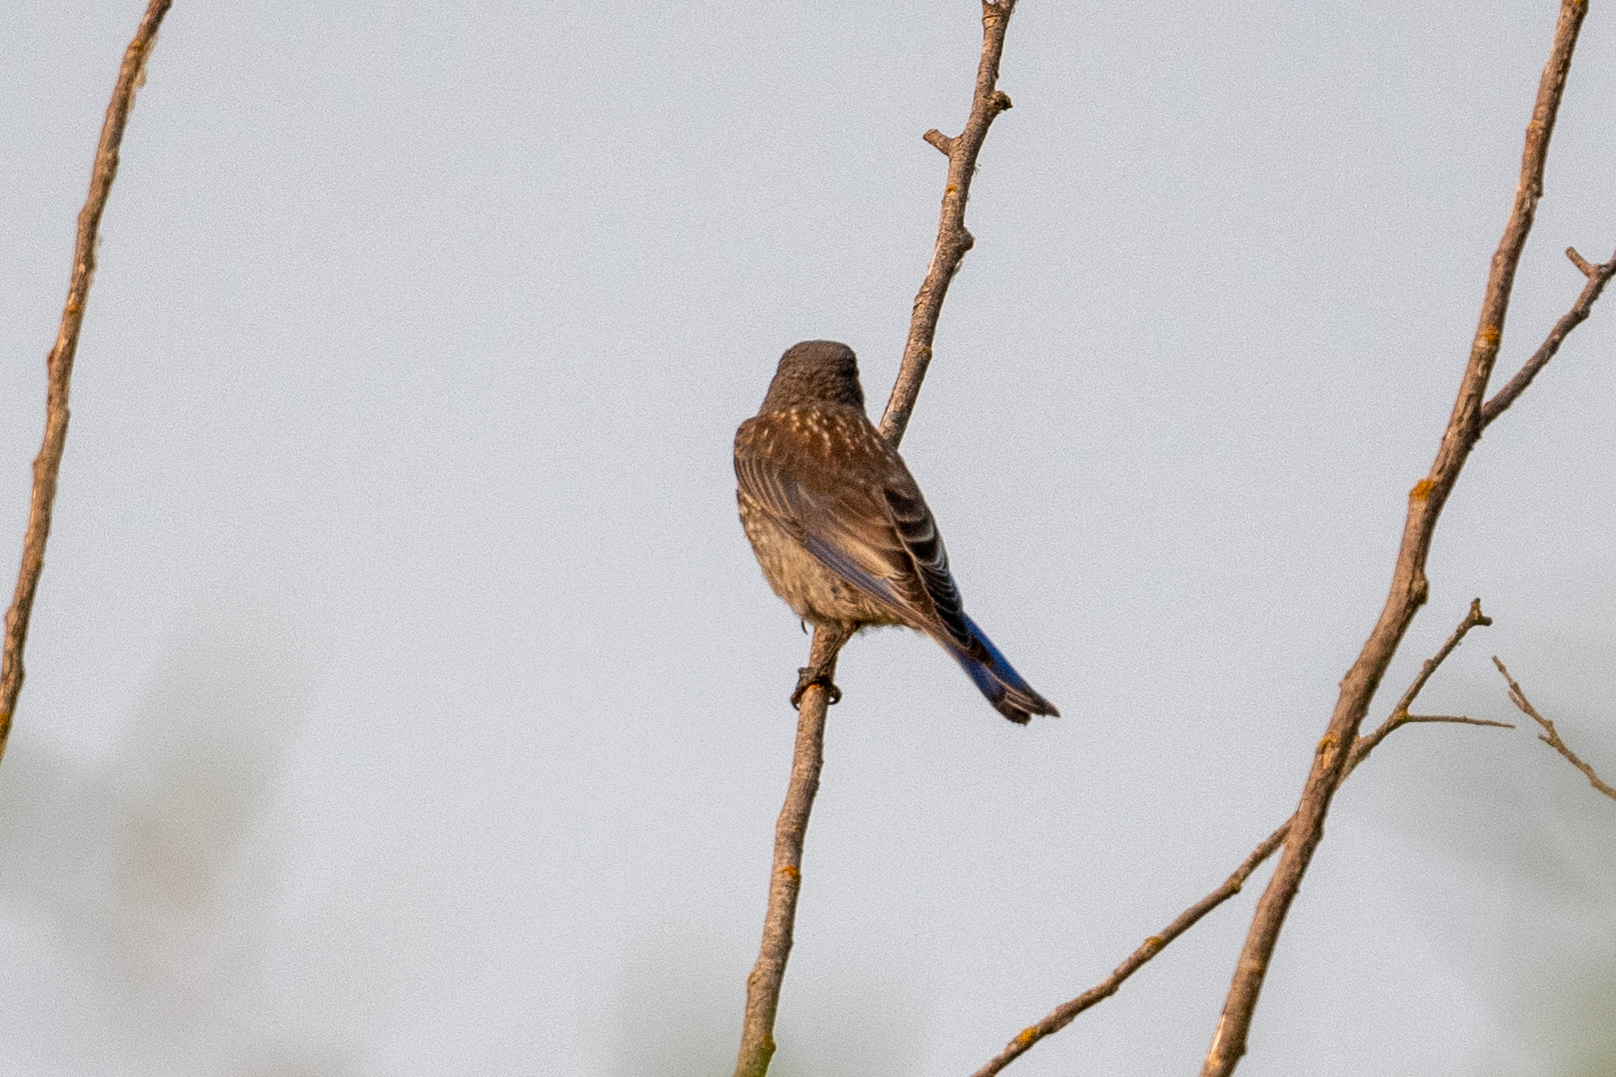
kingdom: Animalia
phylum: Chordata
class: Aves
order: Passeriformes
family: Turdidae
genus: Sialia
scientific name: Sialia mexicana
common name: Western bluebird
